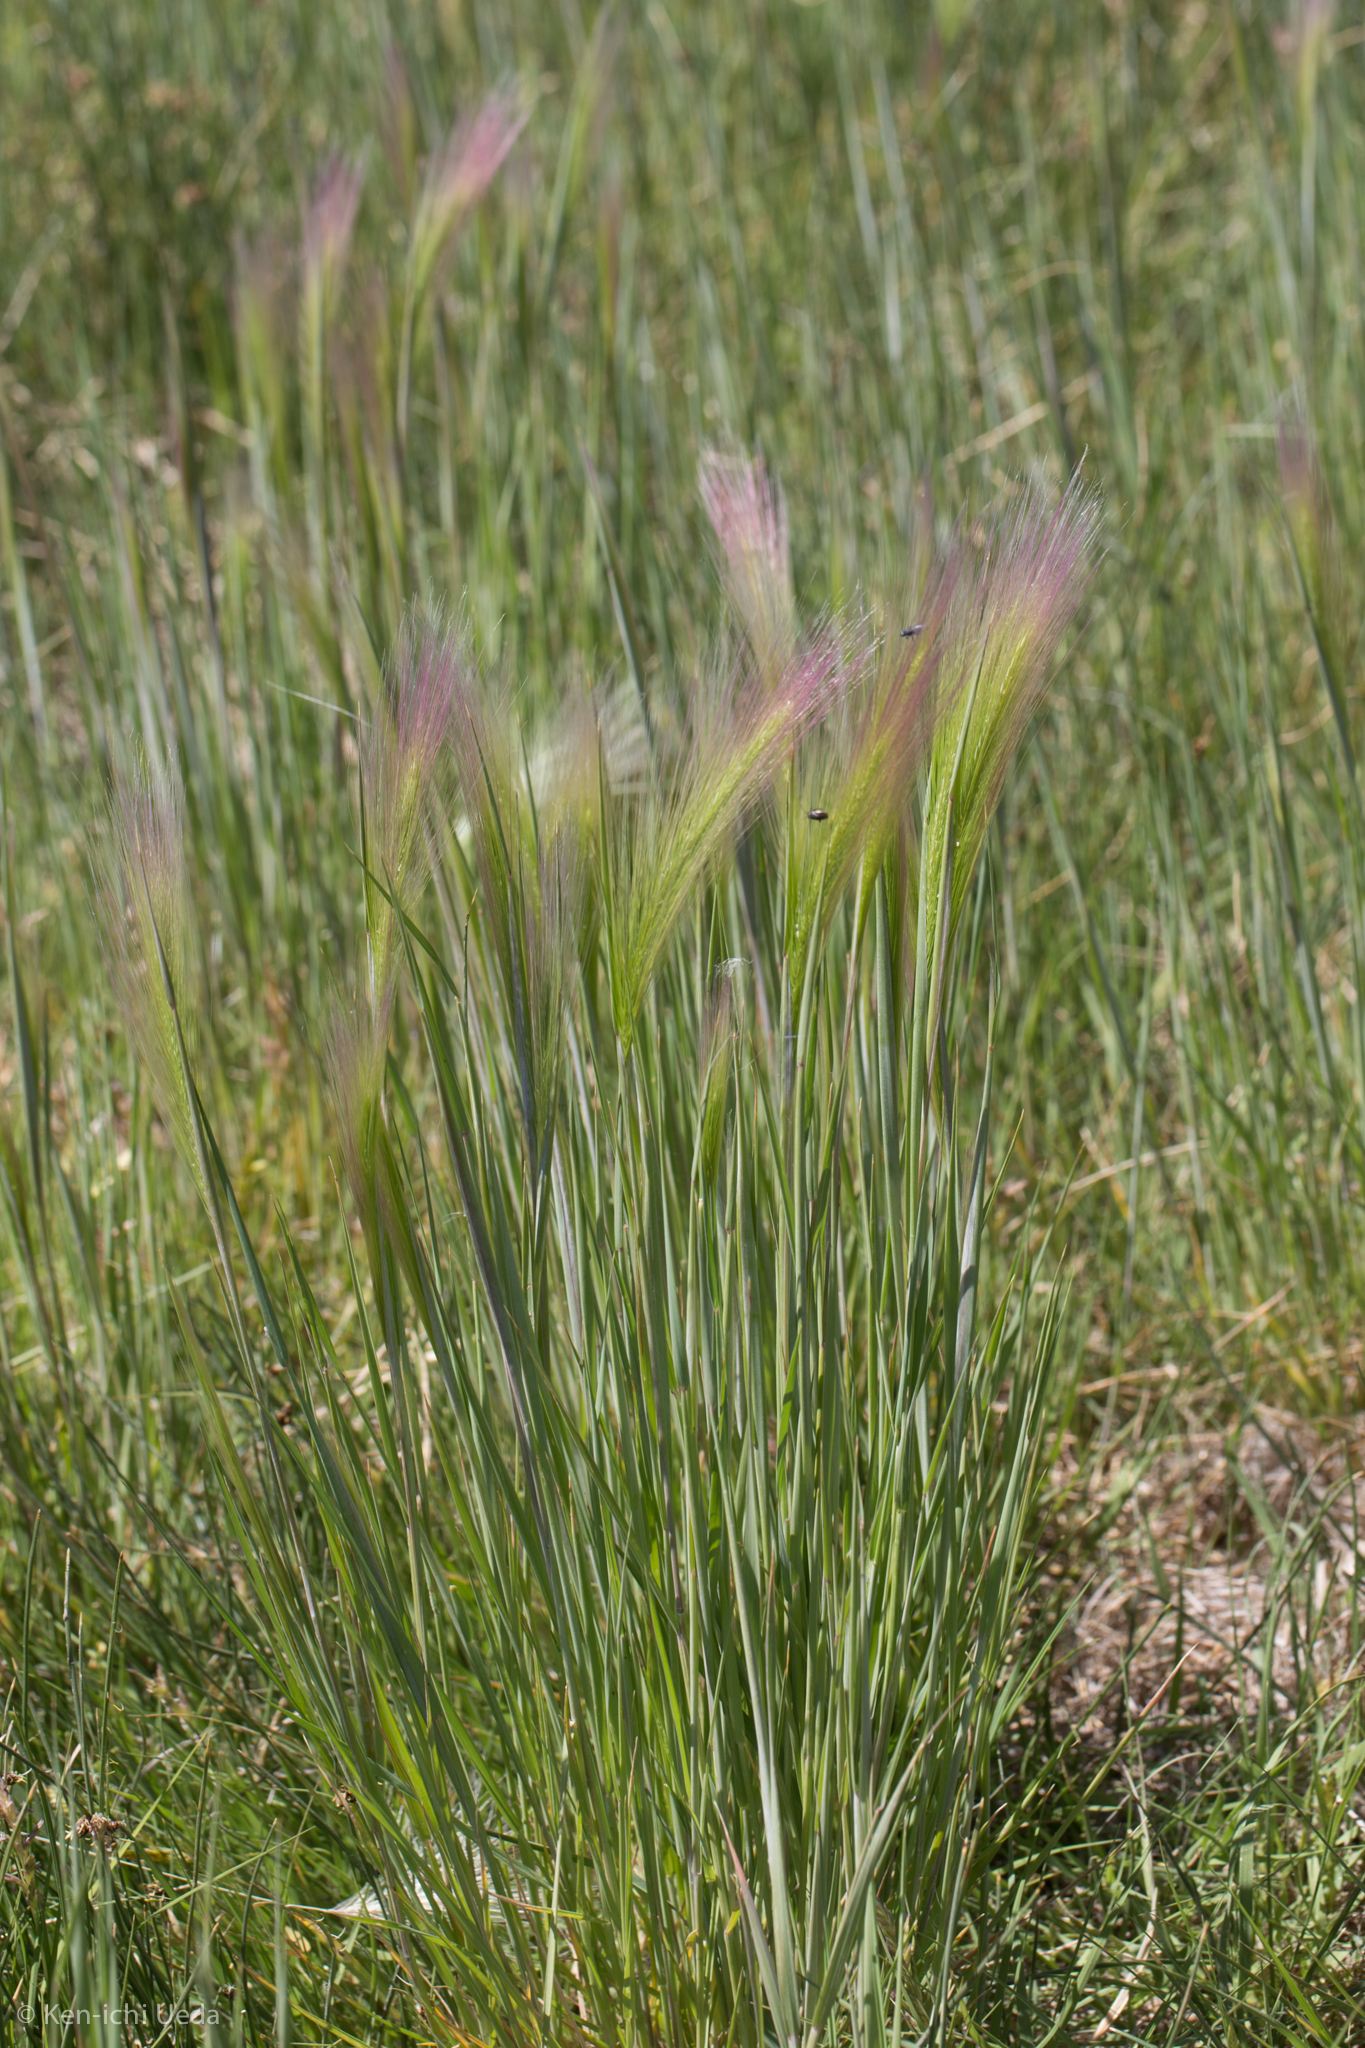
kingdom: Plantae
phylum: Tracheophyta
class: Liliopsida
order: Poales
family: Poaceae
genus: Hordeum
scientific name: Hordeum jubatum
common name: Foxtail barley
